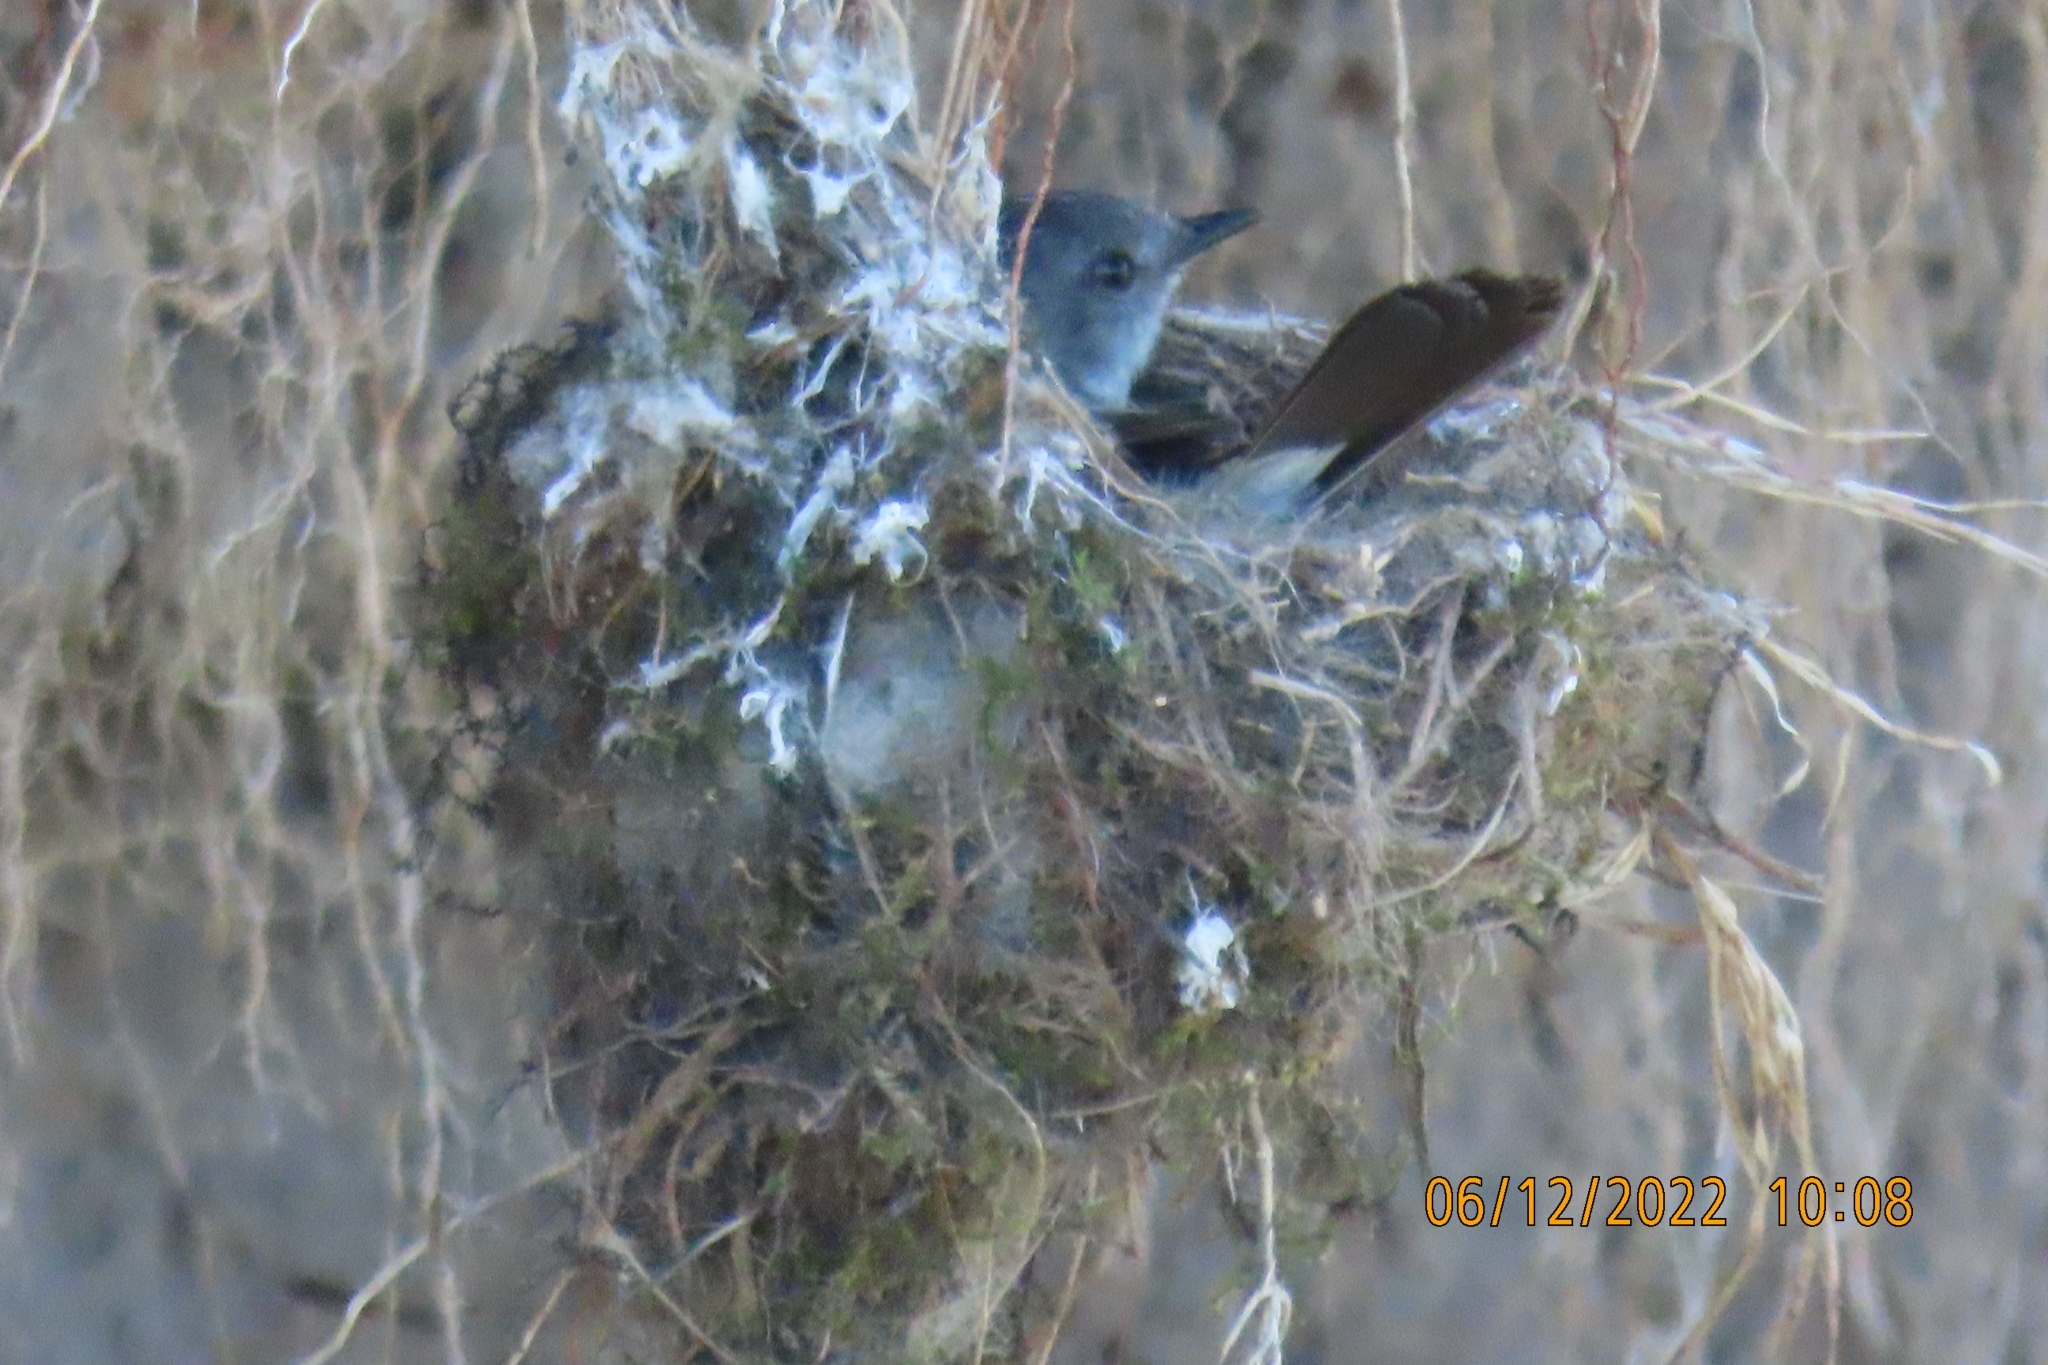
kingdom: Animalia
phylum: Chordata
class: Aves
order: Passeriformes
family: Tyrannidae
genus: Serpophaga
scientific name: Serpophaga nigricans
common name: Sooty tyrannulet
